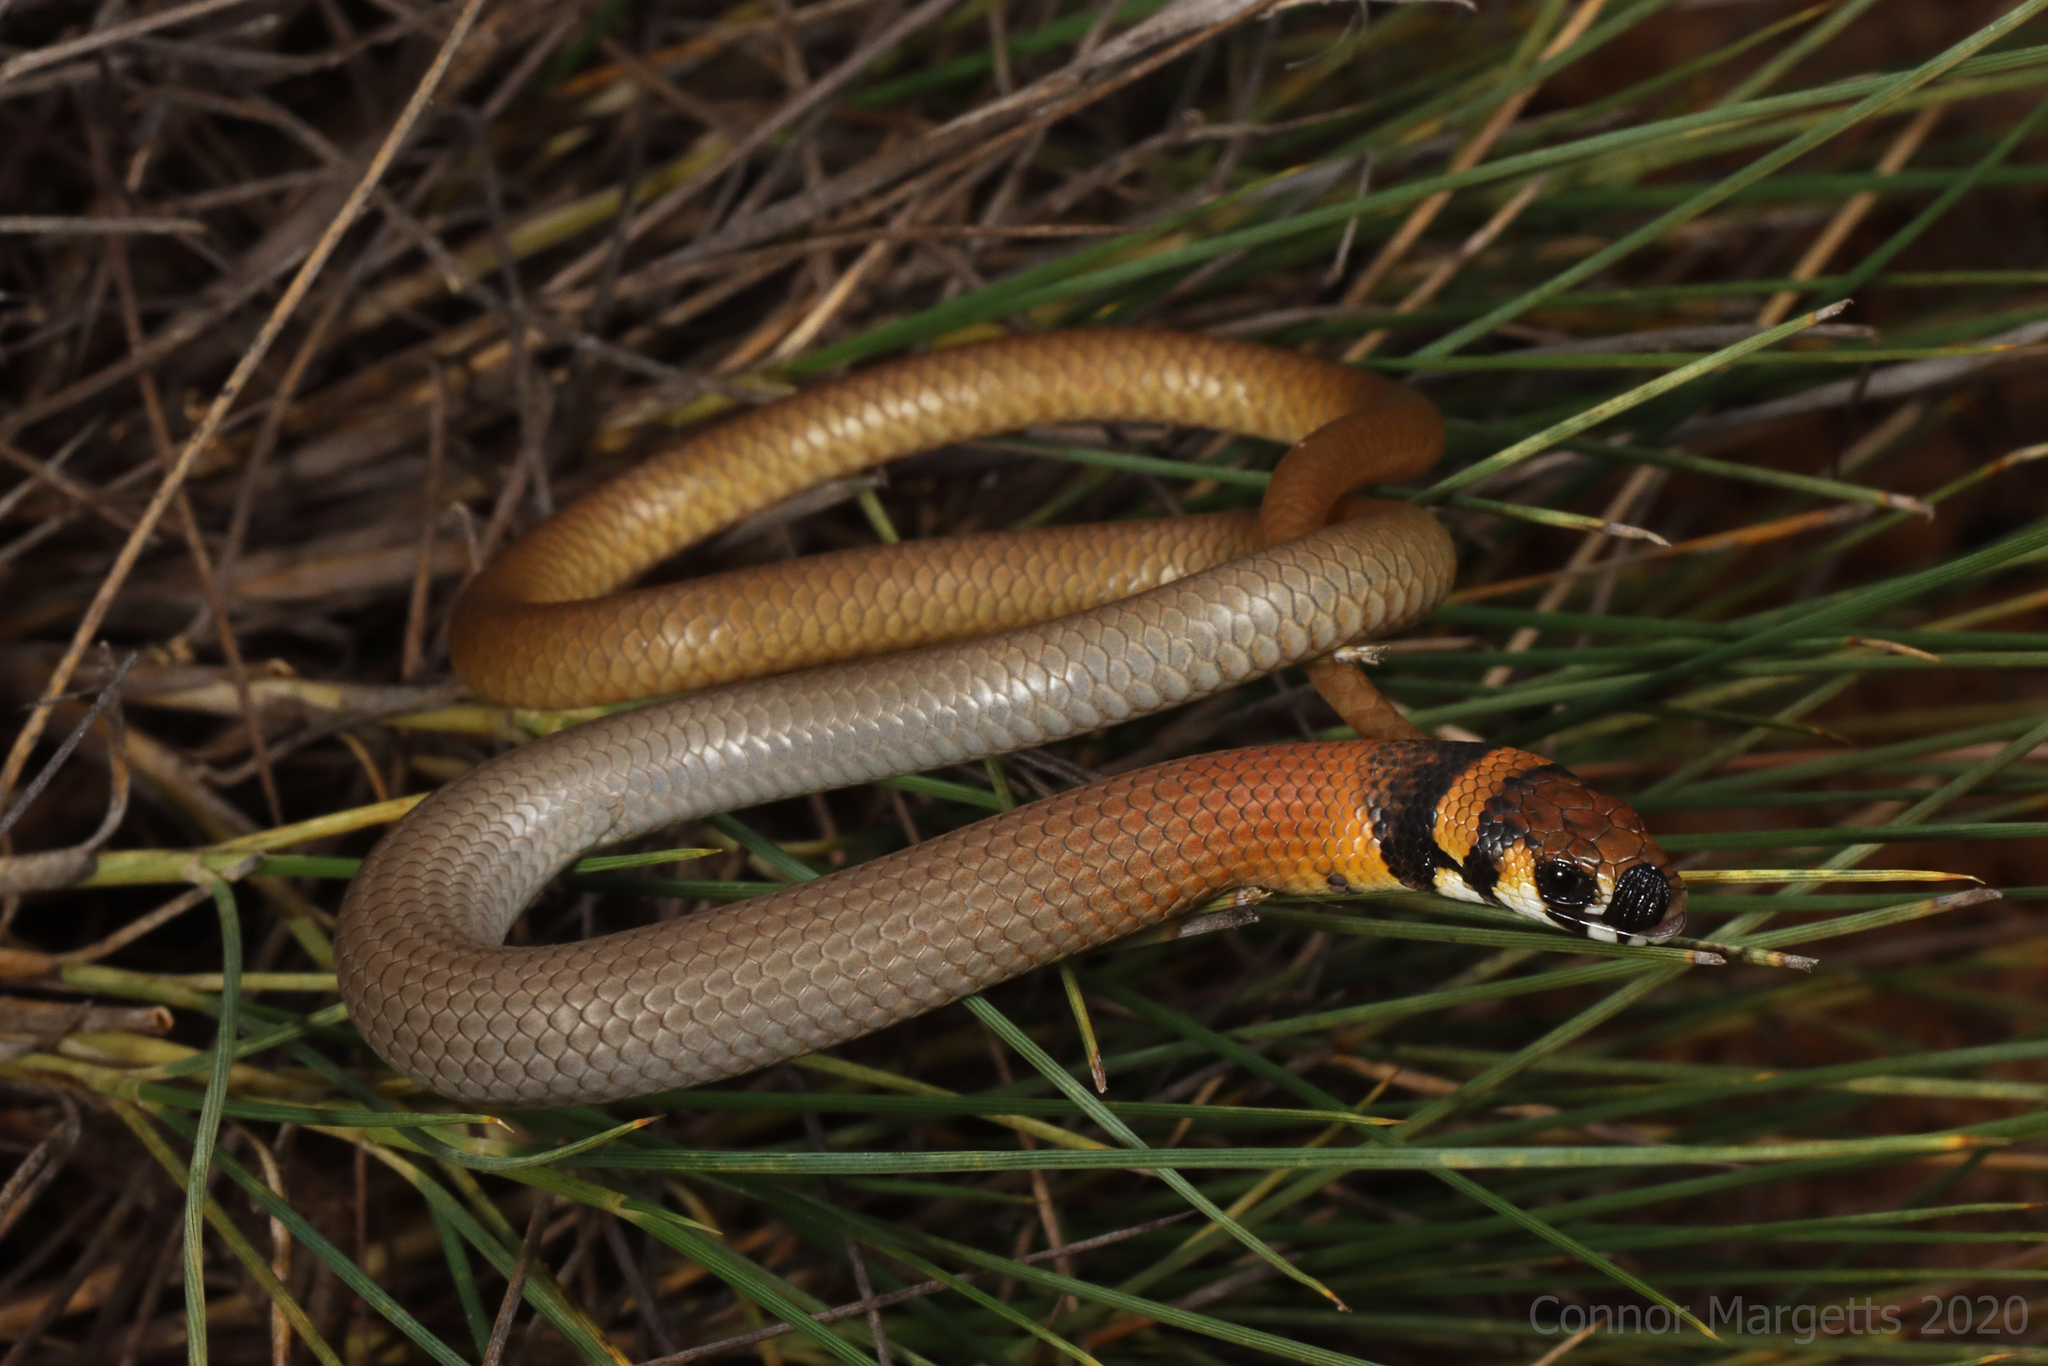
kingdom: Animalia
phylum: Chordata
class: Squamata
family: Pygopodidae
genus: Delma
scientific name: Delma petersoni
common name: Painted delma
